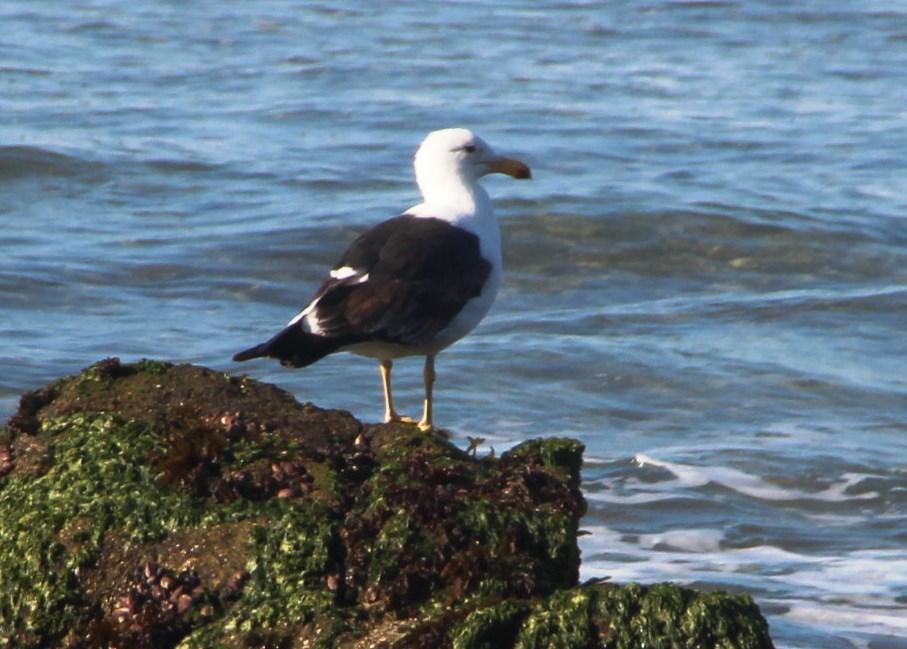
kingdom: Animalia
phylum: Chordata
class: Aves
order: Charadriiformes
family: Laridae
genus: Larus
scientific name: Larus dominicanus
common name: Kelp gull
